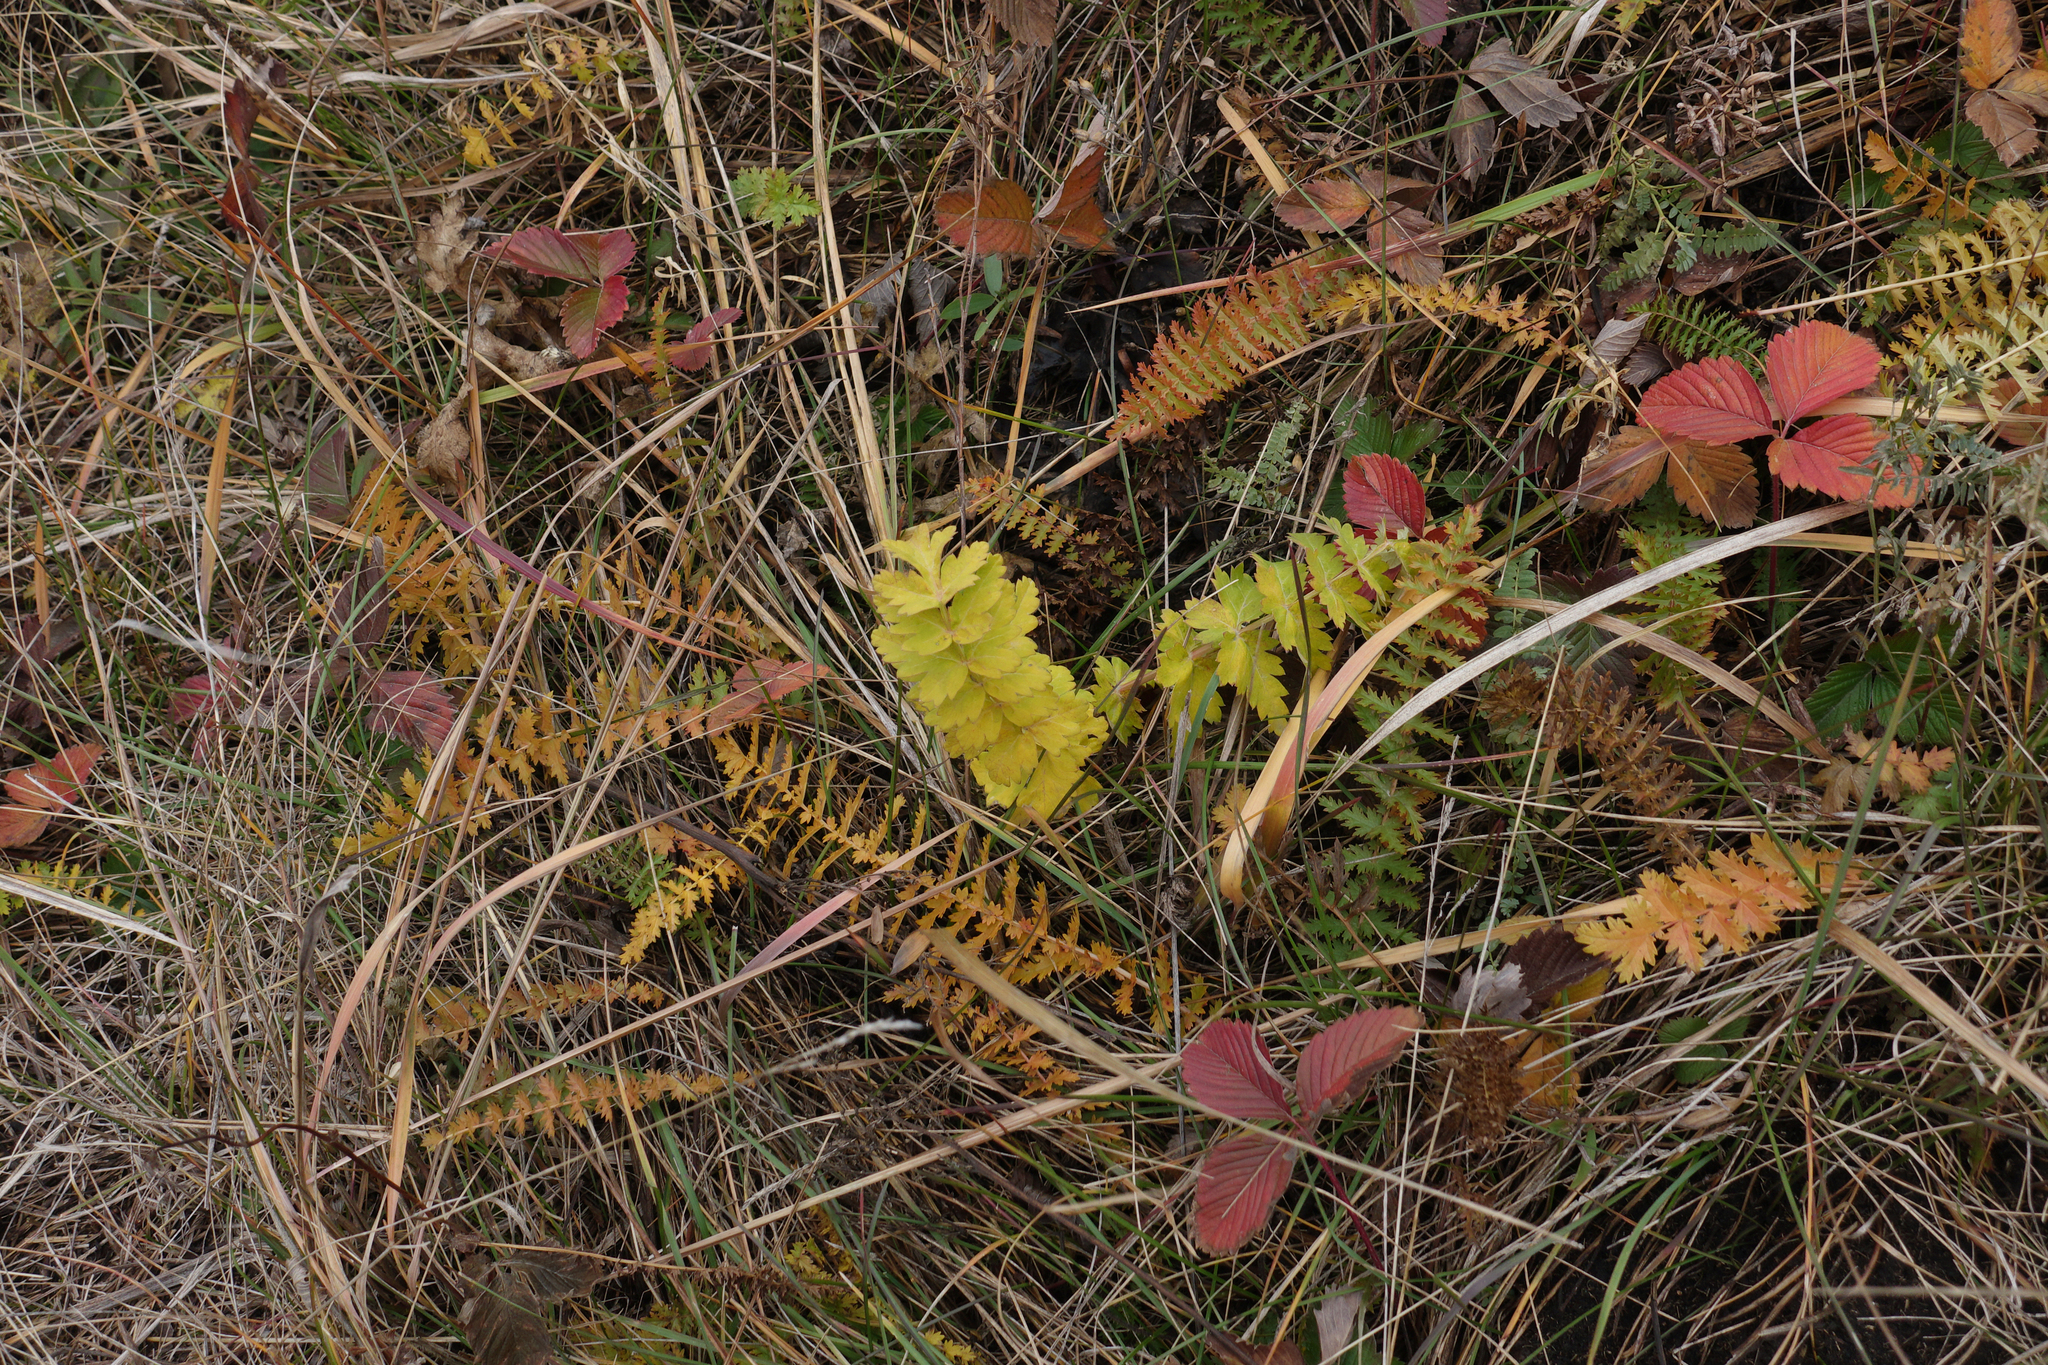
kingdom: Plantae
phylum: Tracheophyta
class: Magnoliopsida
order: Apiales
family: Apiaceae
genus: Pimpinella
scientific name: Pimpinella saxifraga
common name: Burnet-saxifrage
